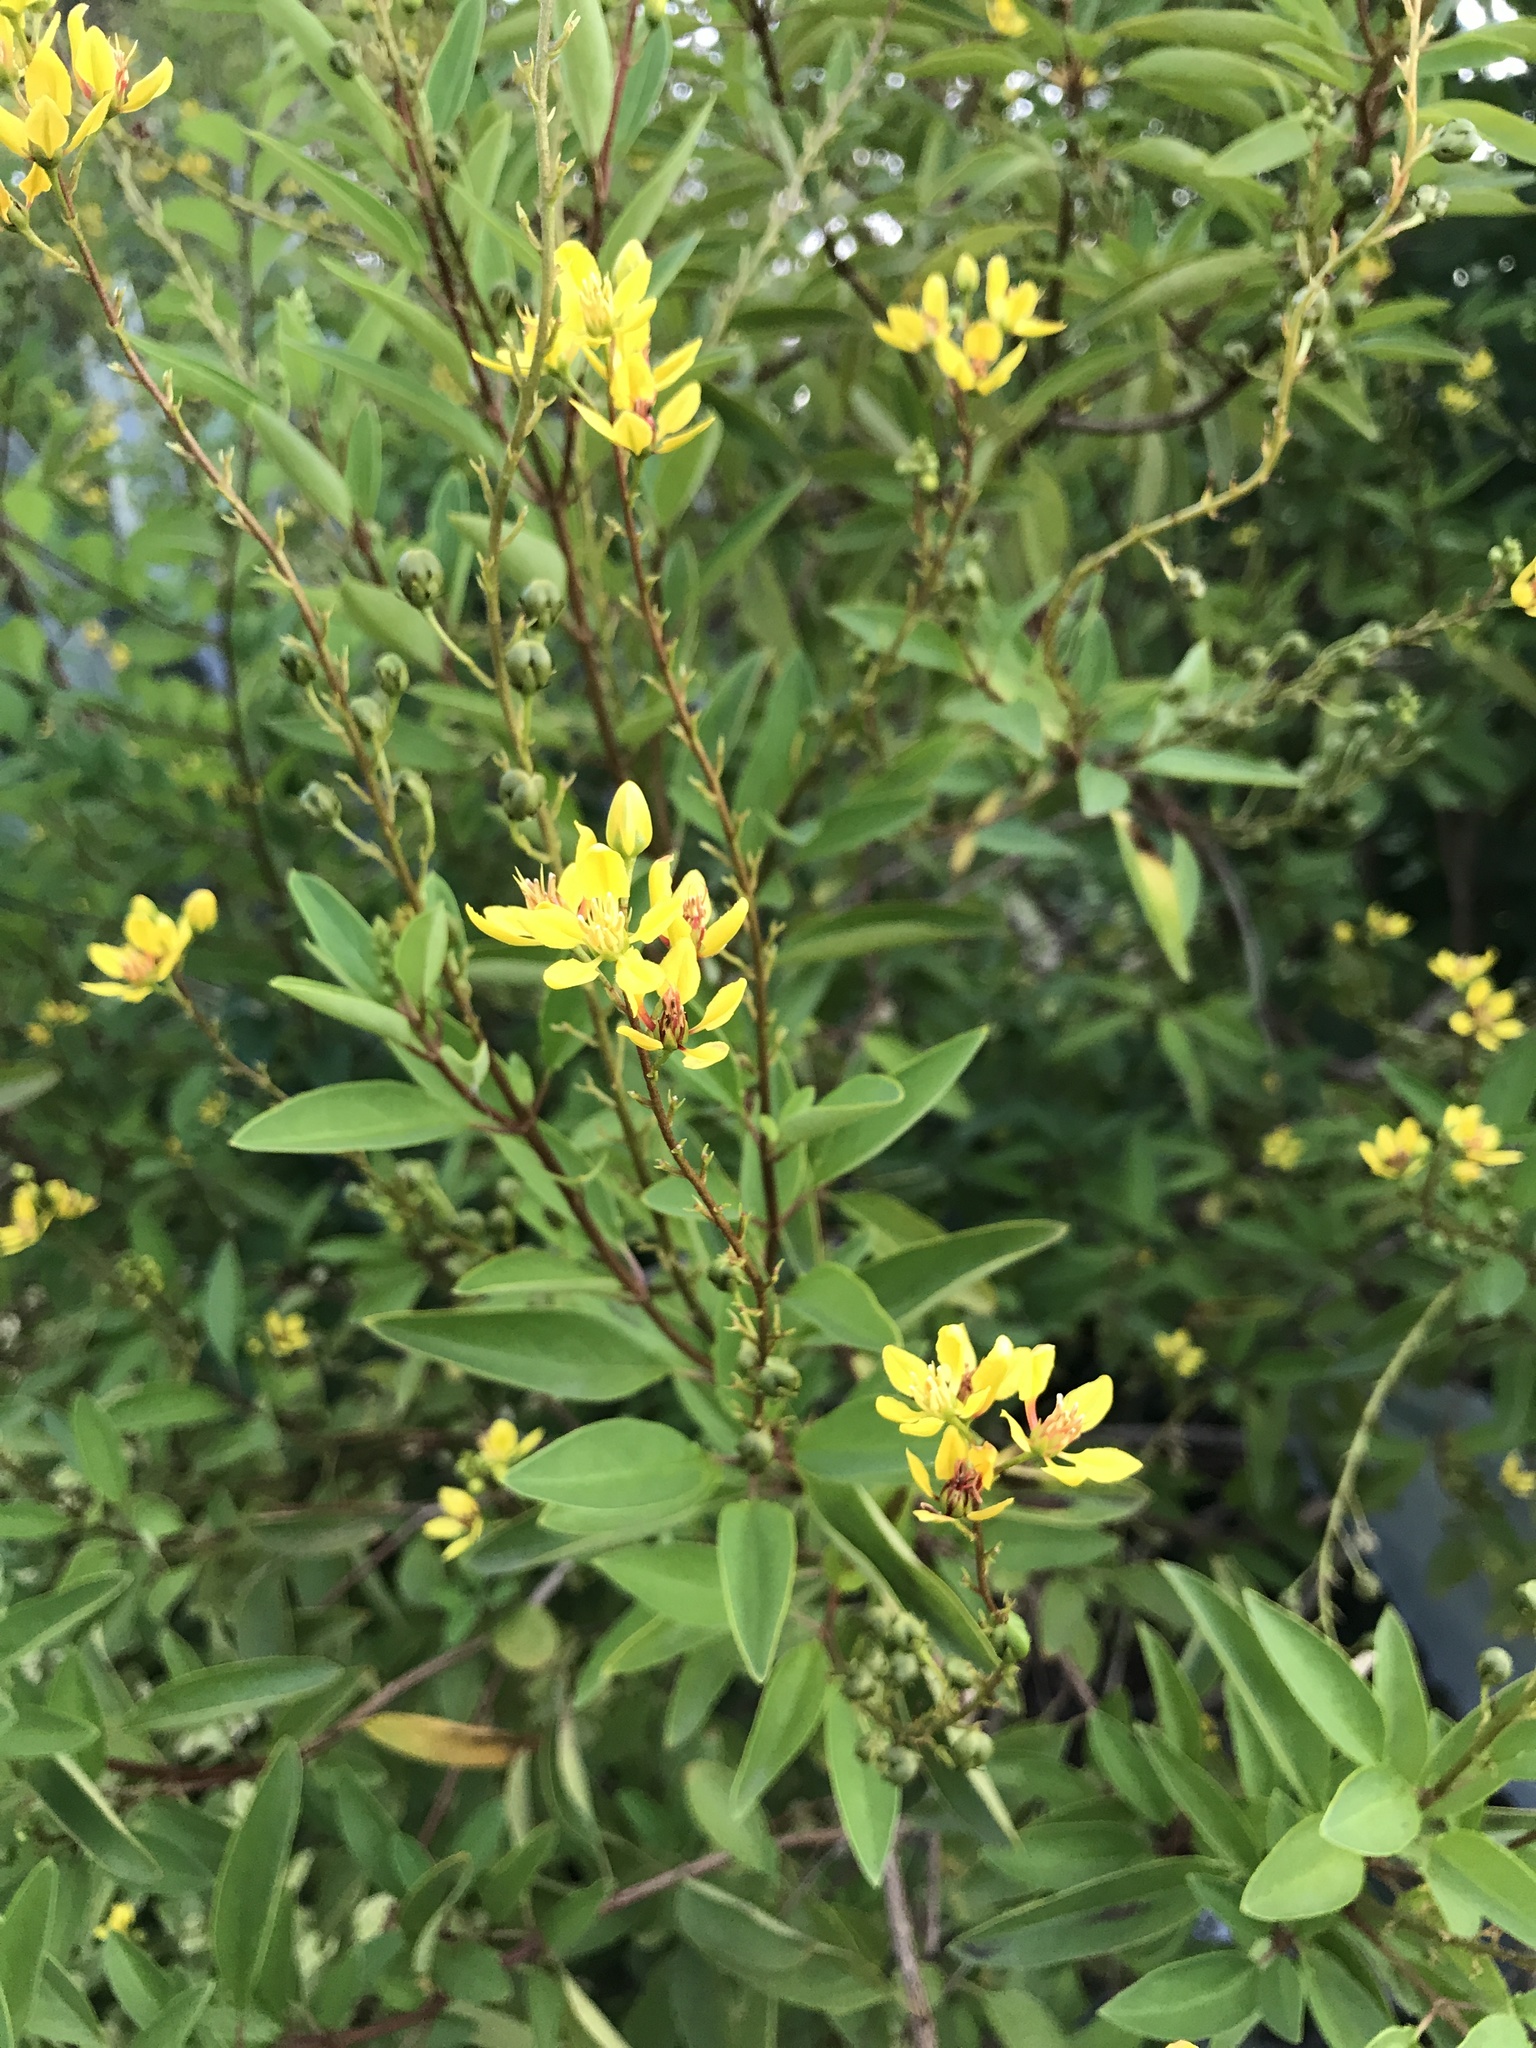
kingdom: Plantae
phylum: Tracheophyta
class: Magnoliopsida
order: Malpighiales
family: Malpighiaceae
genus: Galphimia
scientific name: Galphimia gracilis
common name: Slender goldshower
